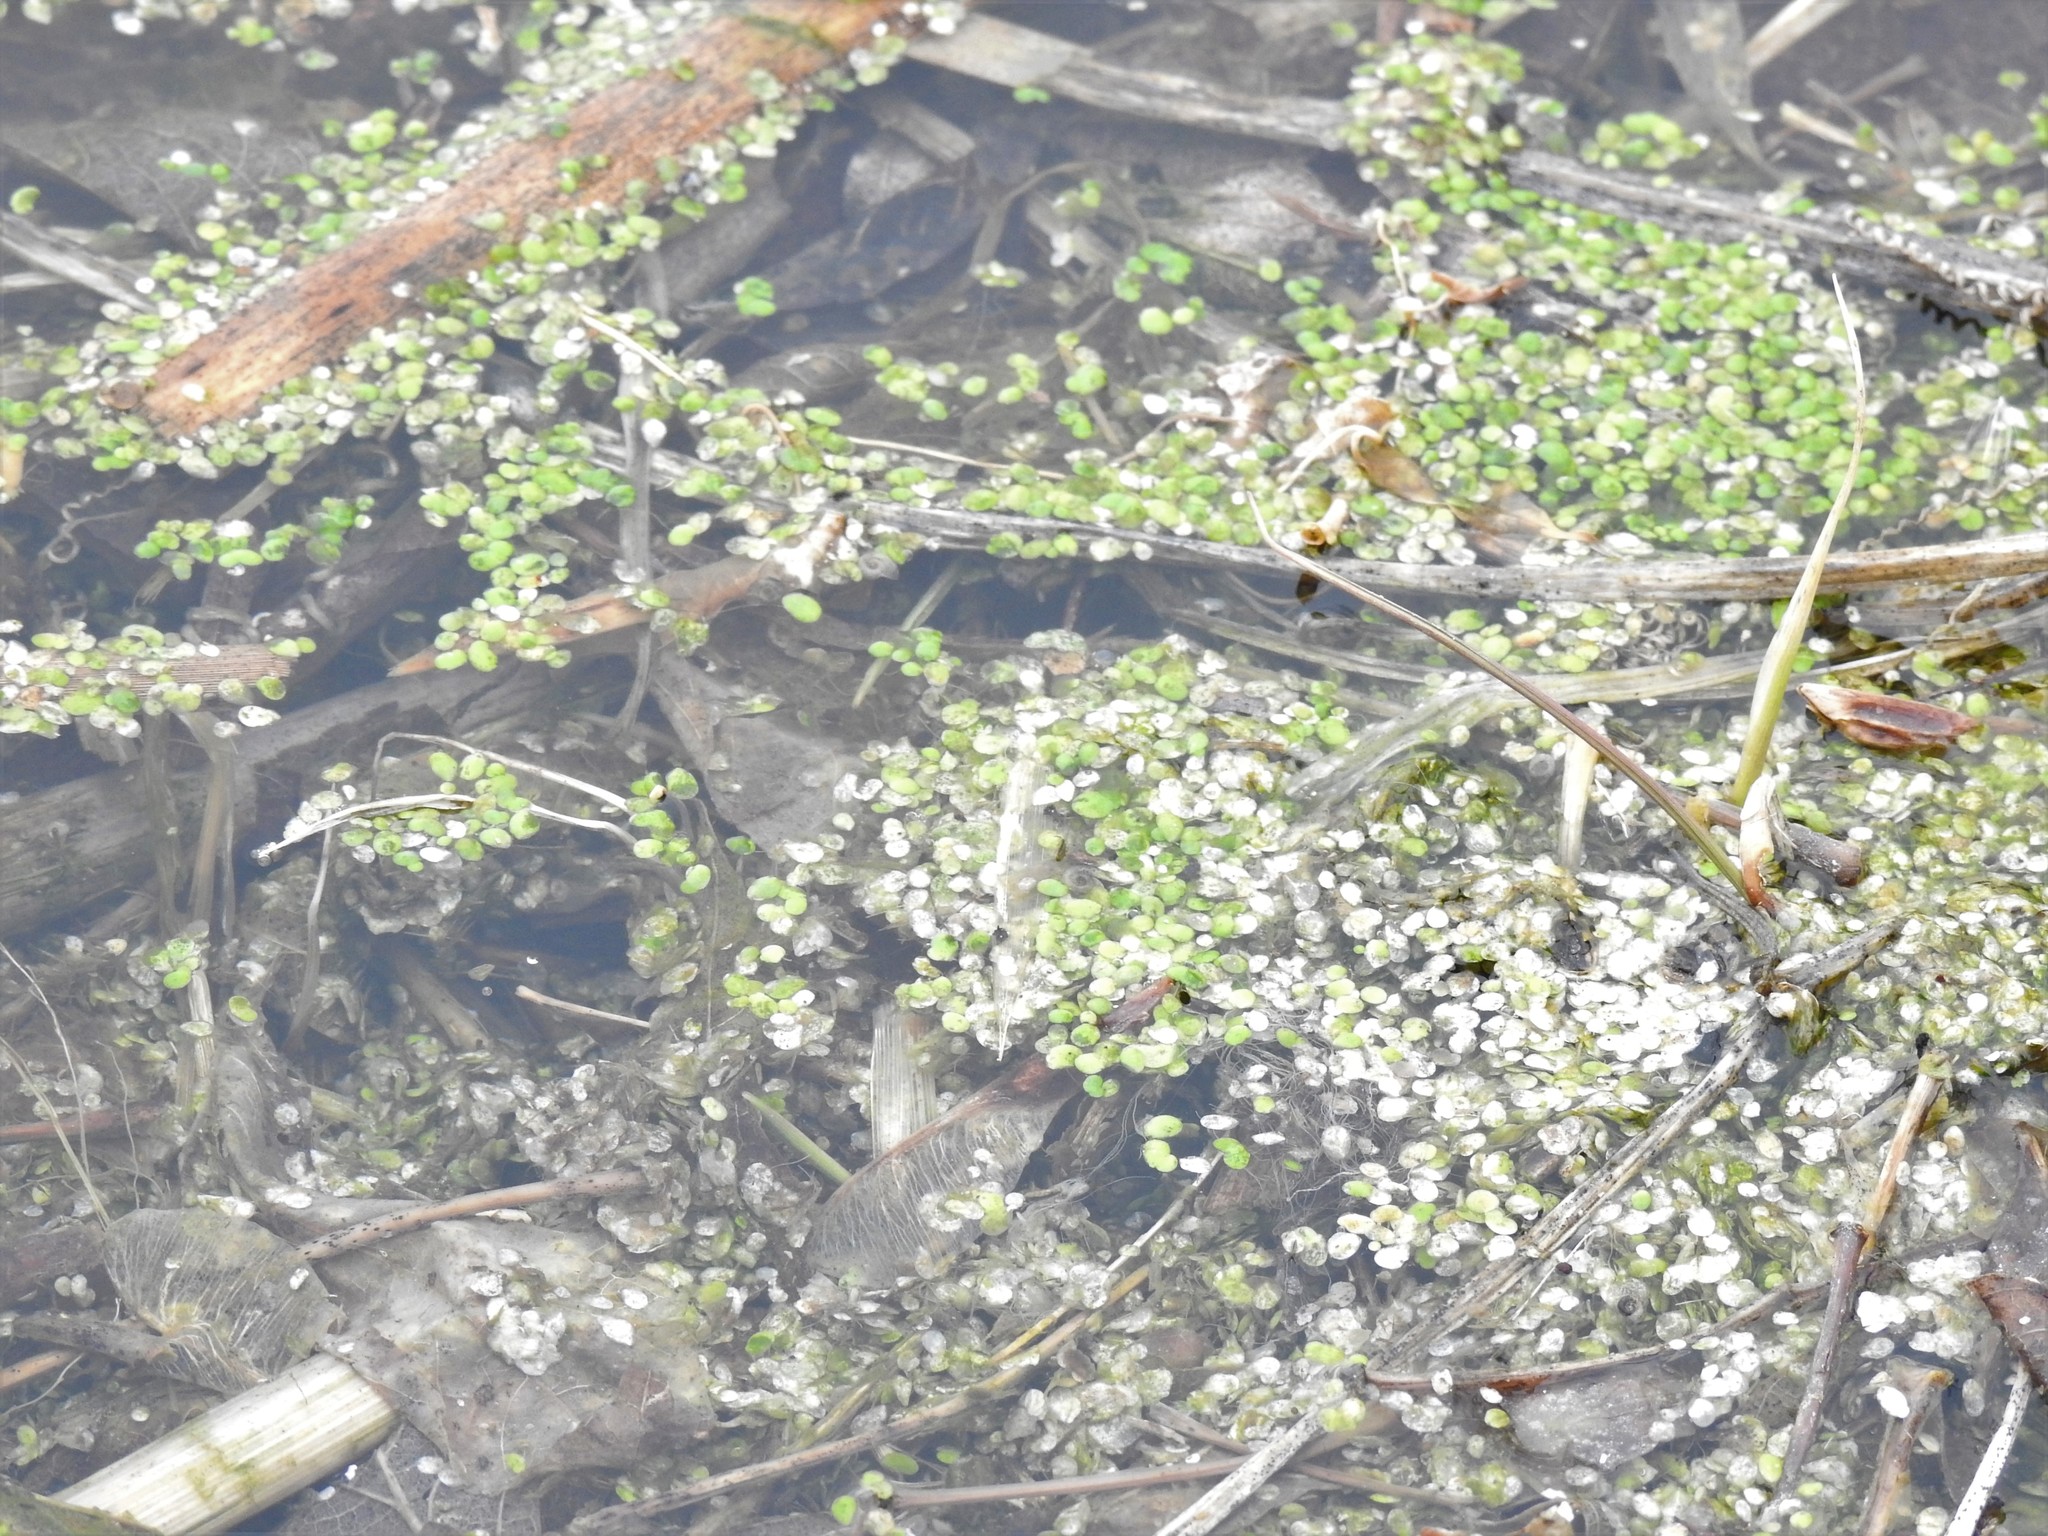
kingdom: Plantae
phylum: Tracheophyta
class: Liliopsida
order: Alismatales
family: Araceae
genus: Lemna
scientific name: Lemna
